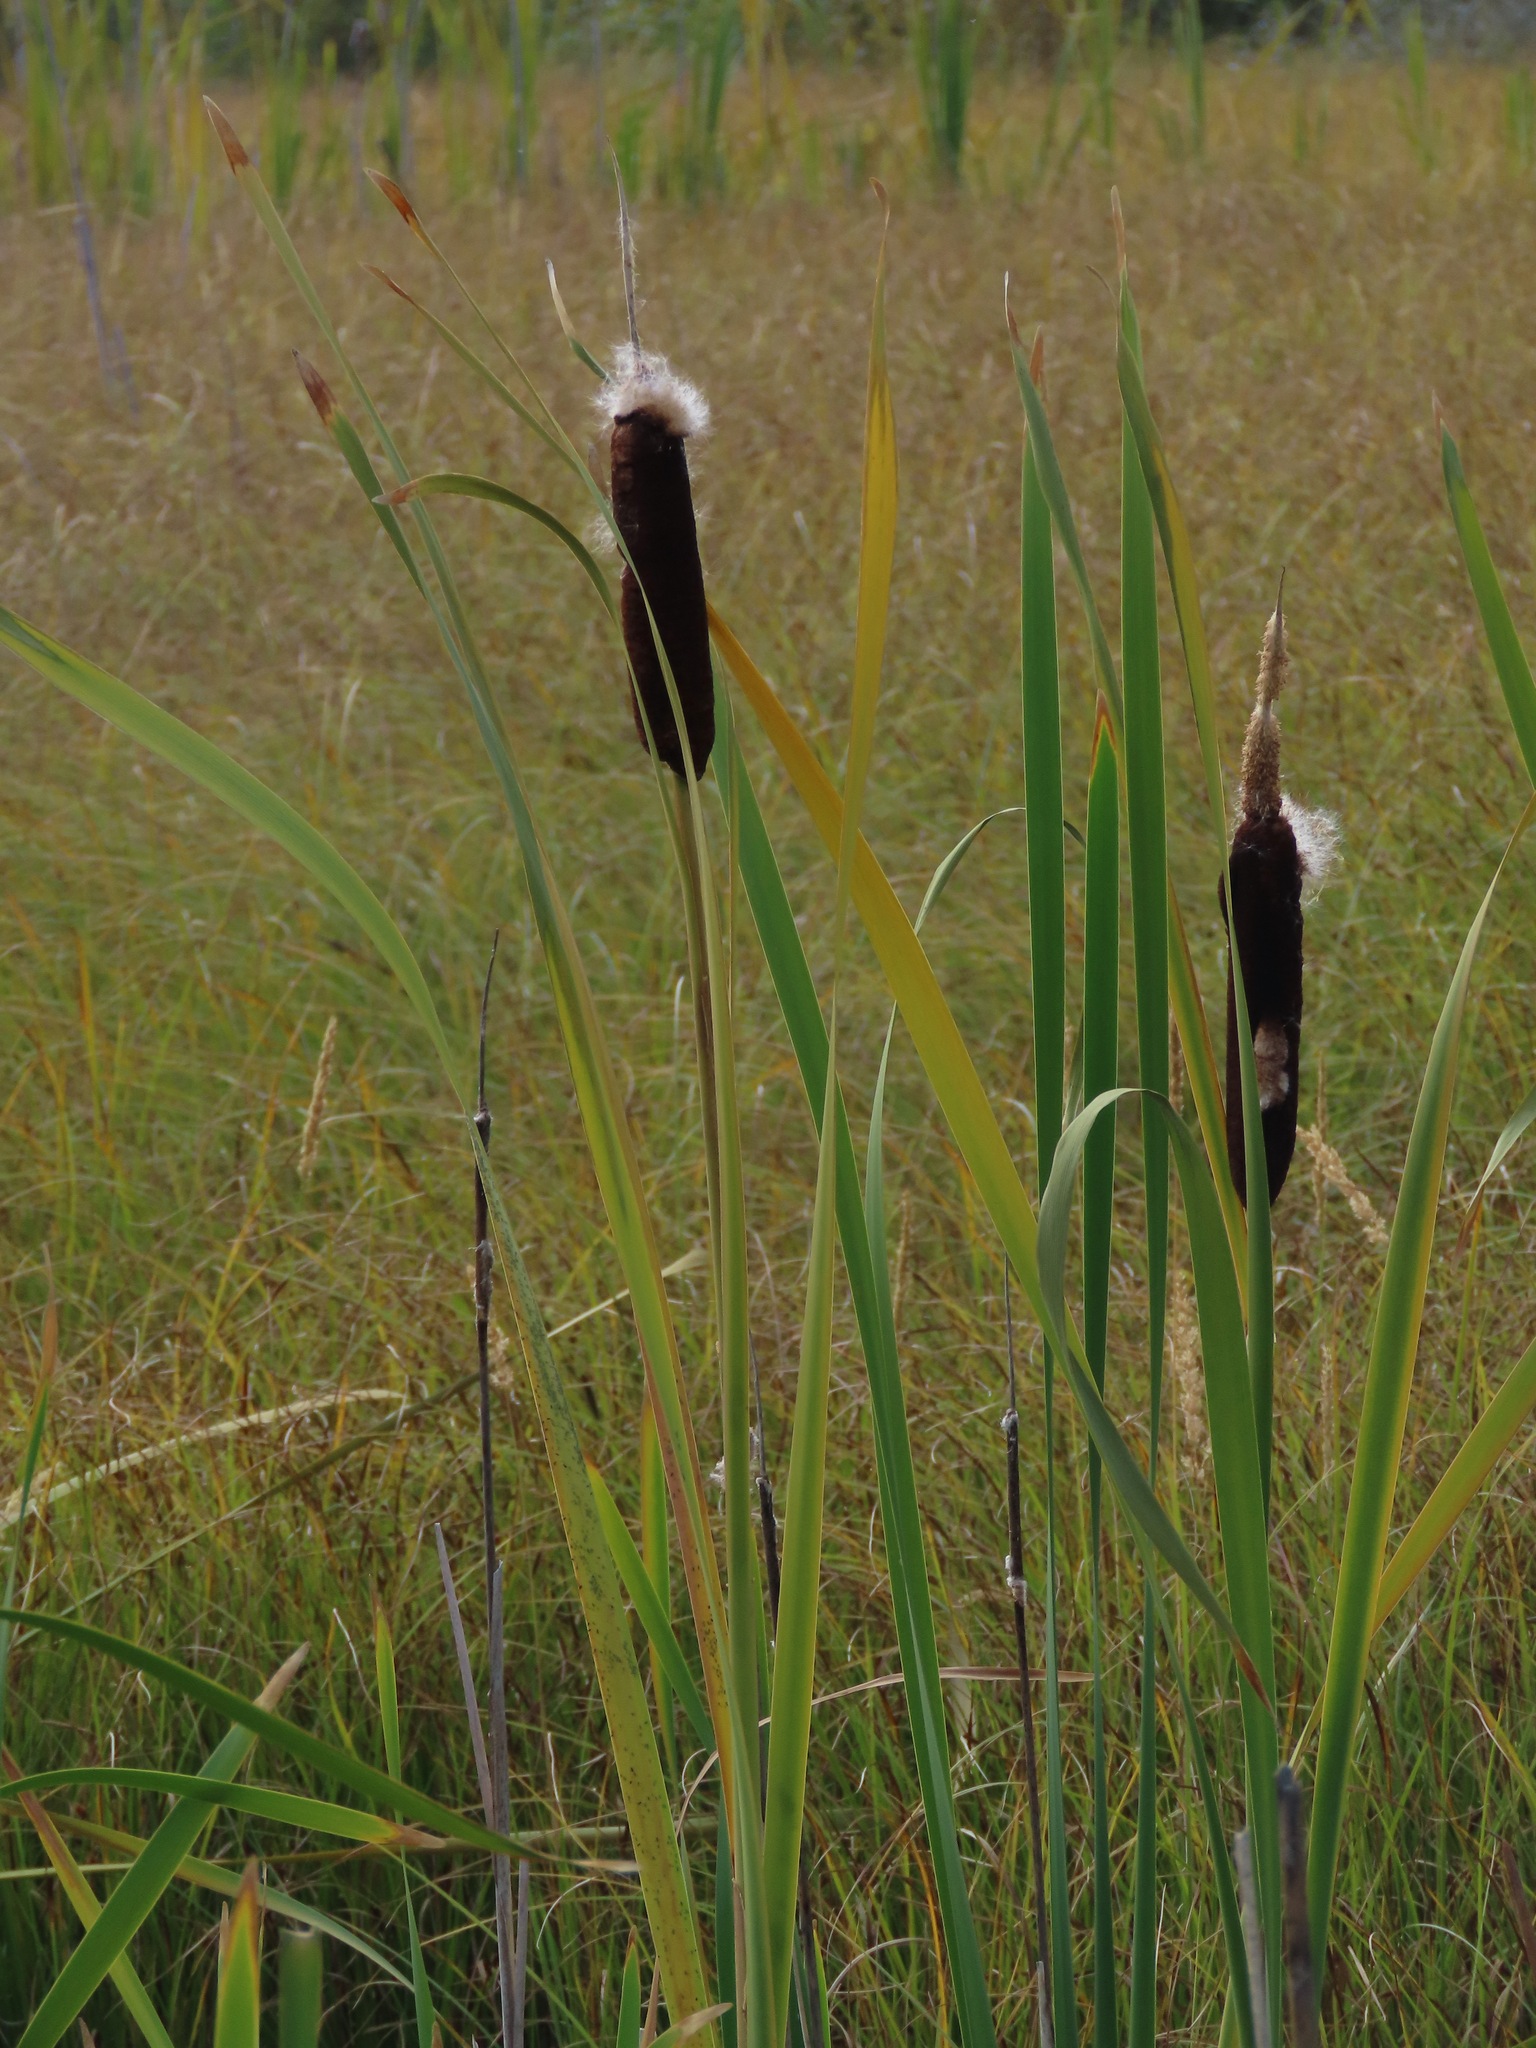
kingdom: Plantae
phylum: Tracheophyta
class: Liliopsida
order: Poales
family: Typhaceae
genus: Typha
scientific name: Typha latifolia
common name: Broadleaf cattail
